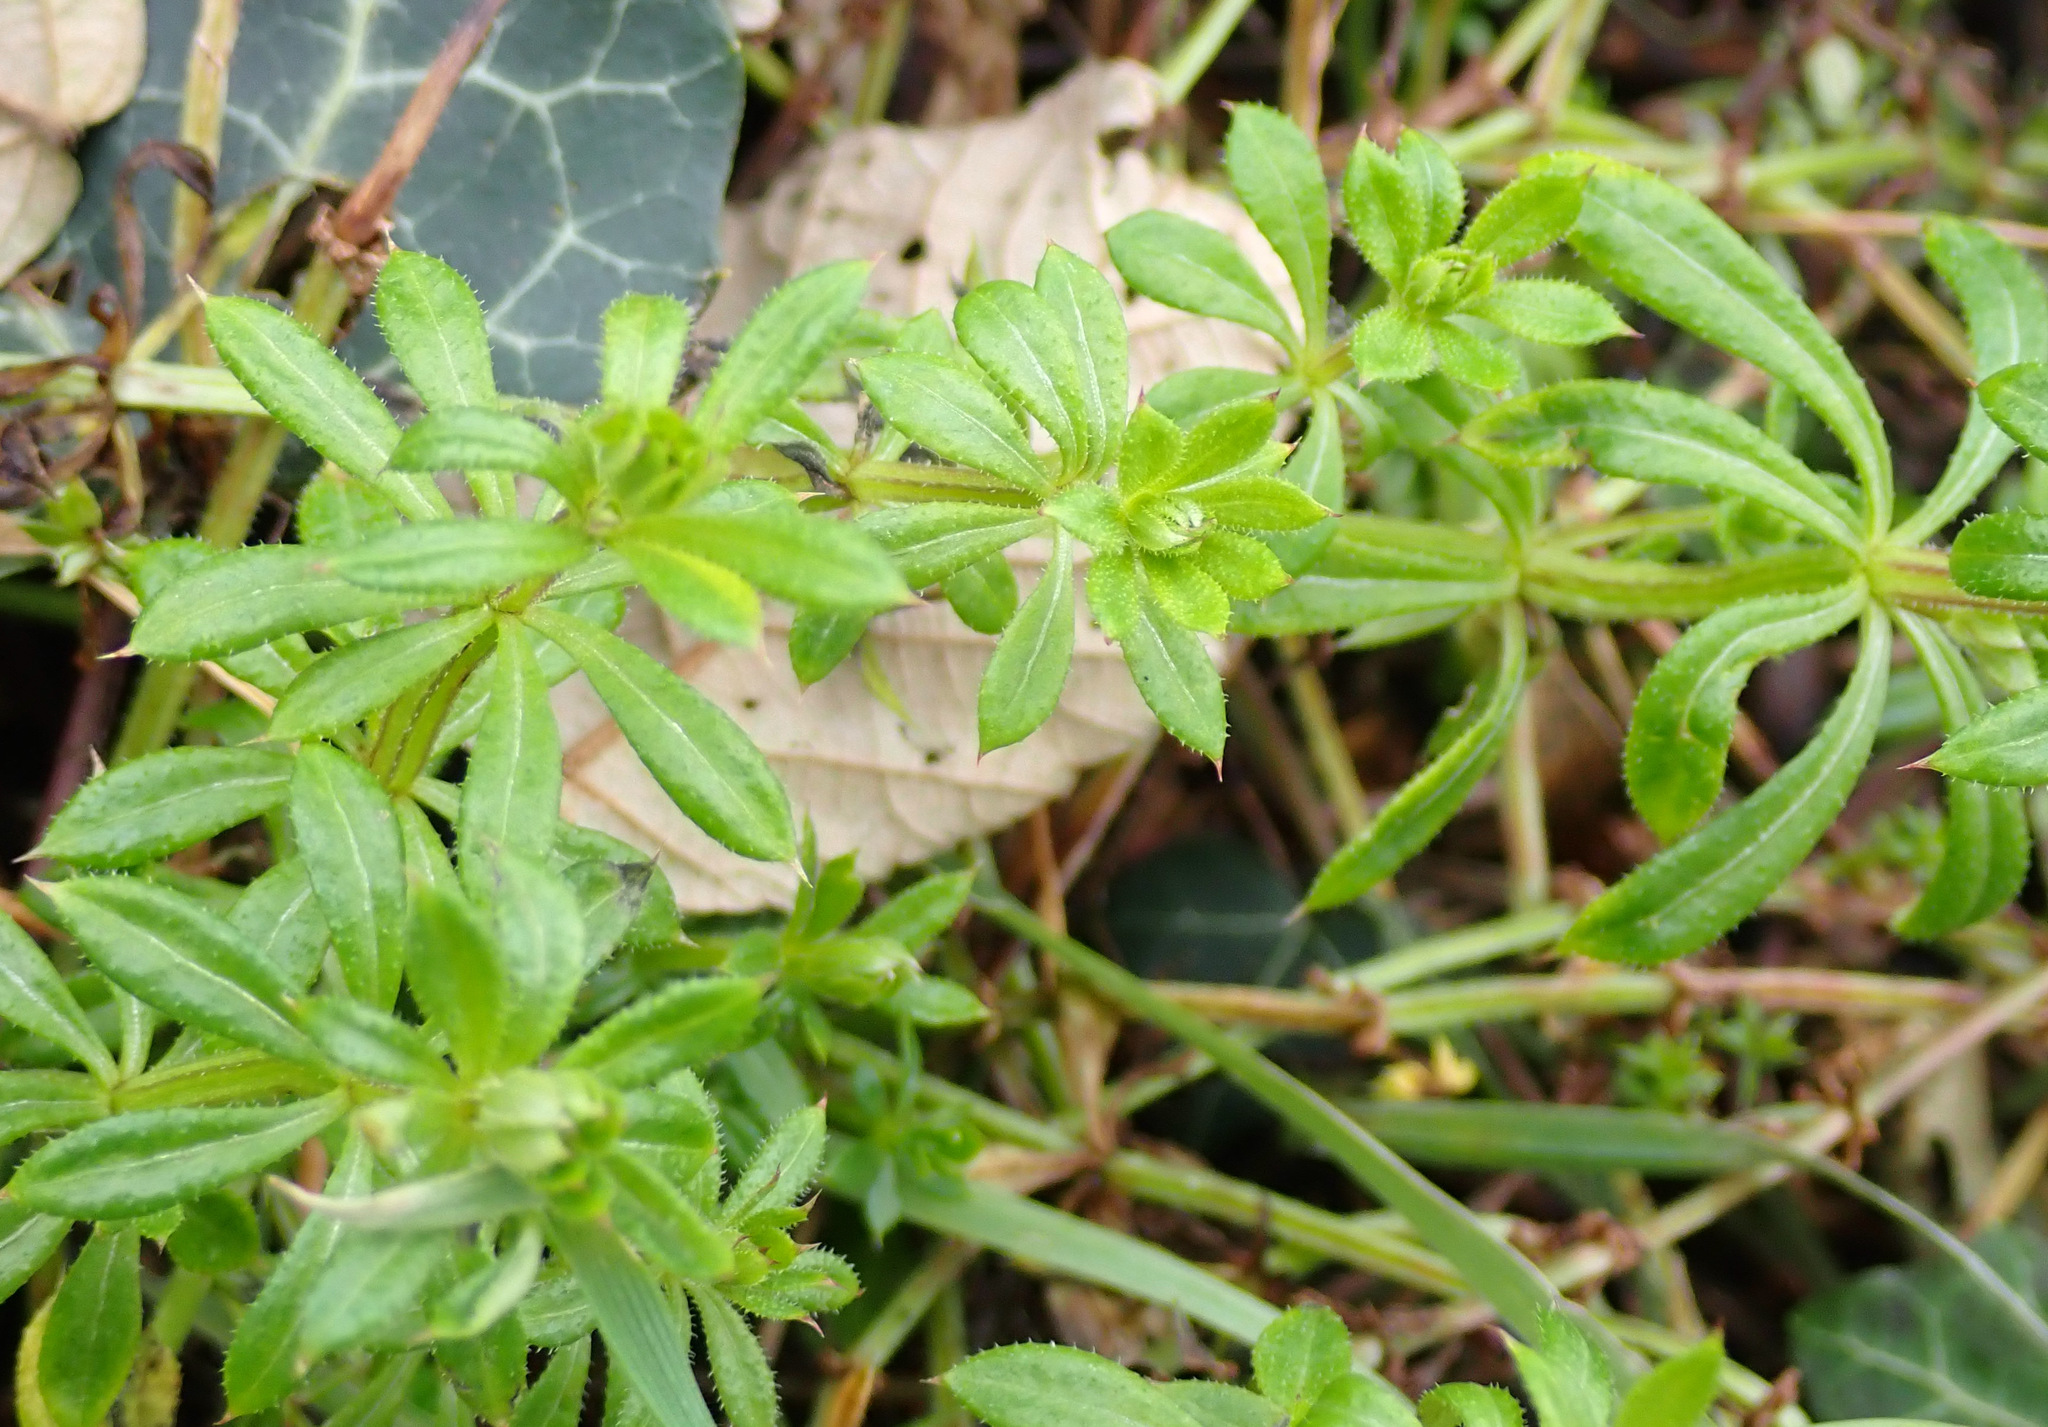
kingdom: Plantae
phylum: Tracheophyta
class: Magnoliopsida
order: Gentianales
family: Rubiaceae
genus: Galium
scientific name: Galium aparine
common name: Cleavers
